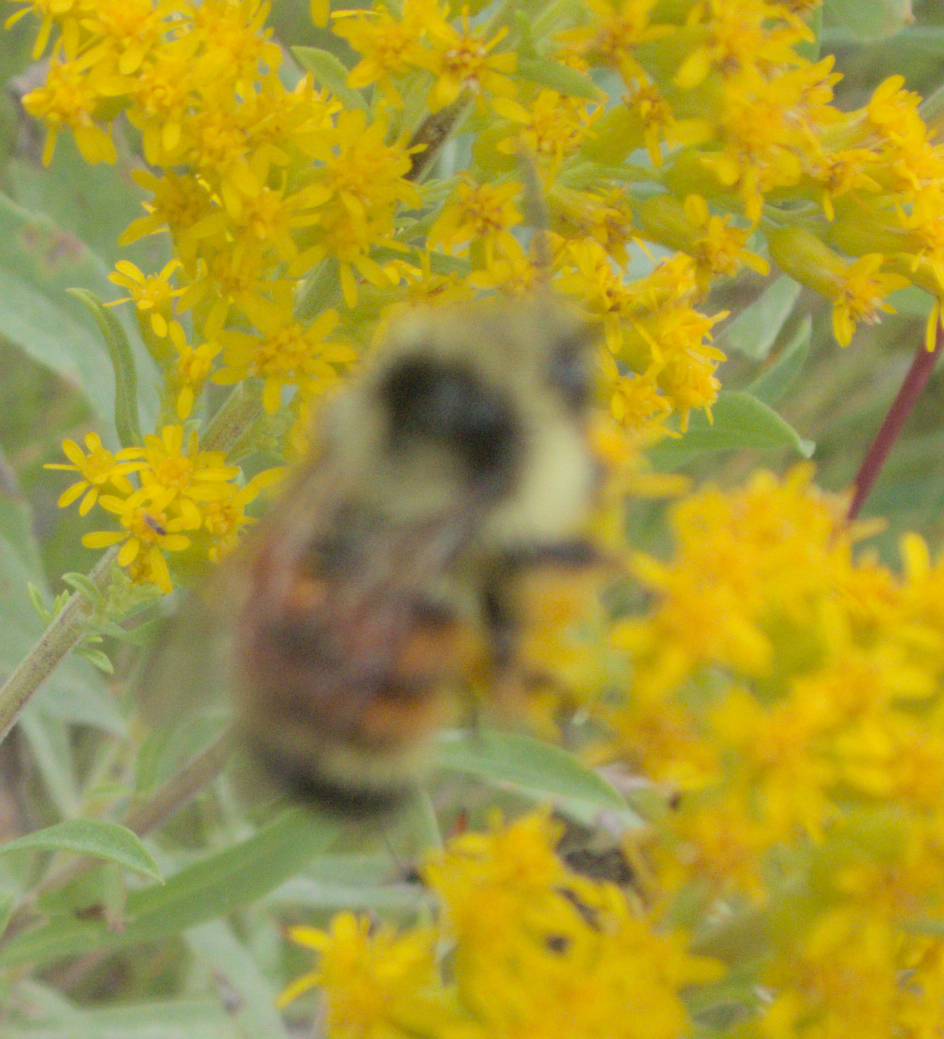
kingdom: Animalia
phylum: Arthropoda
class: Insecta
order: Hymenoptera
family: Apidae
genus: Bombus
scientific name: Bombus ternarius
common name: Tri-colored bumble bee
